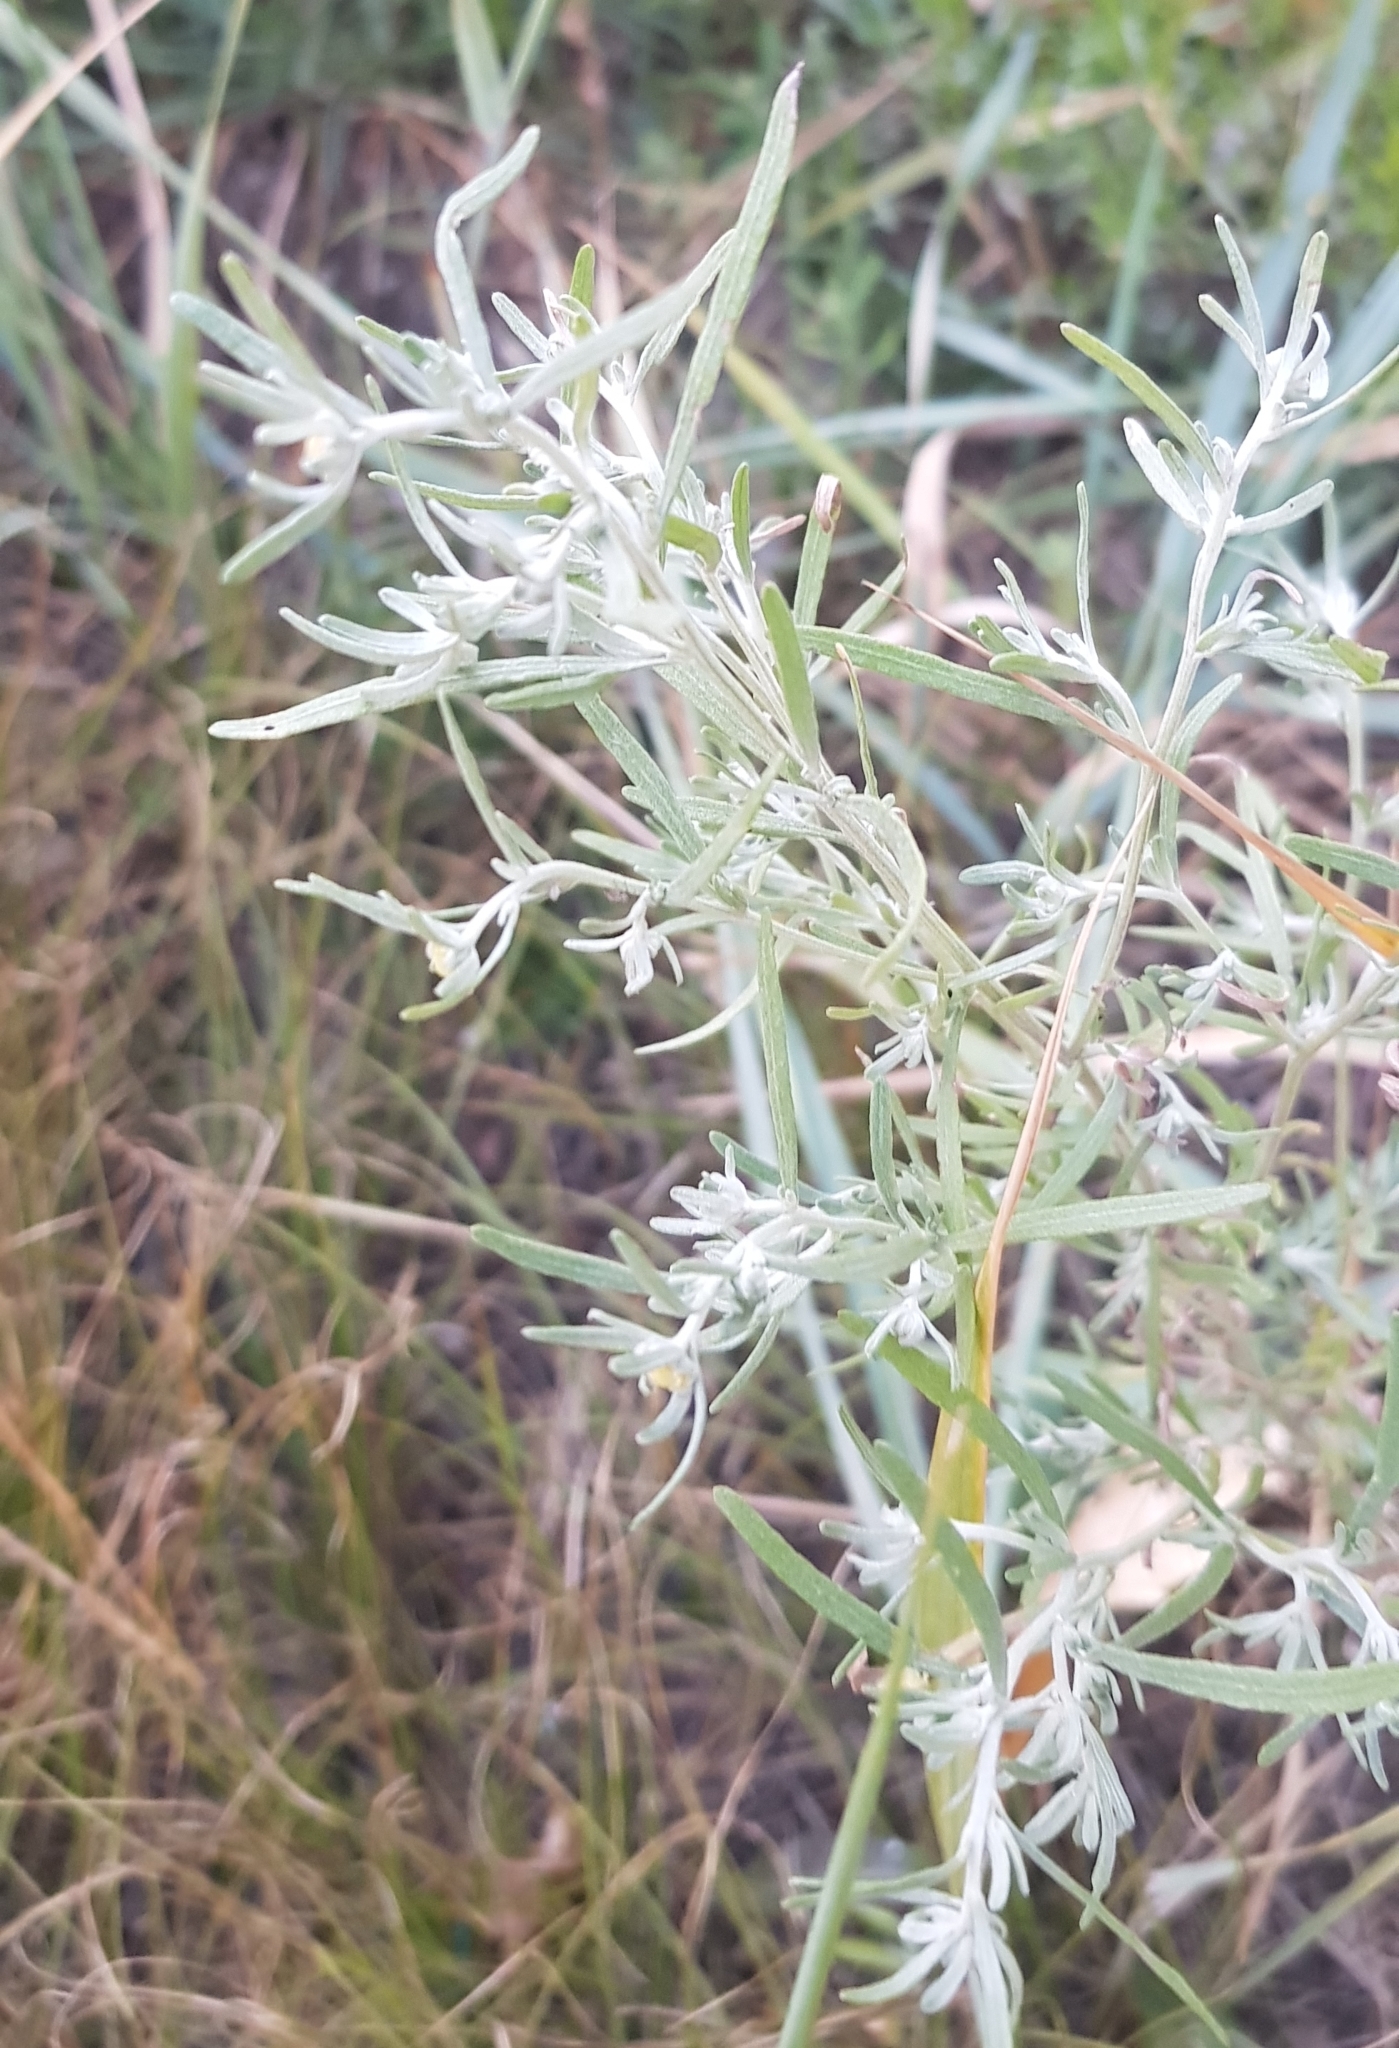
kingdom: Plantae
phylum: Tracheophyta
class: Magnoliopsida
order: Asterales
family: Asteraceae
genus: Artemisia
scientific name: Artemisia sieversiana
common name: Sieversian wormwood
